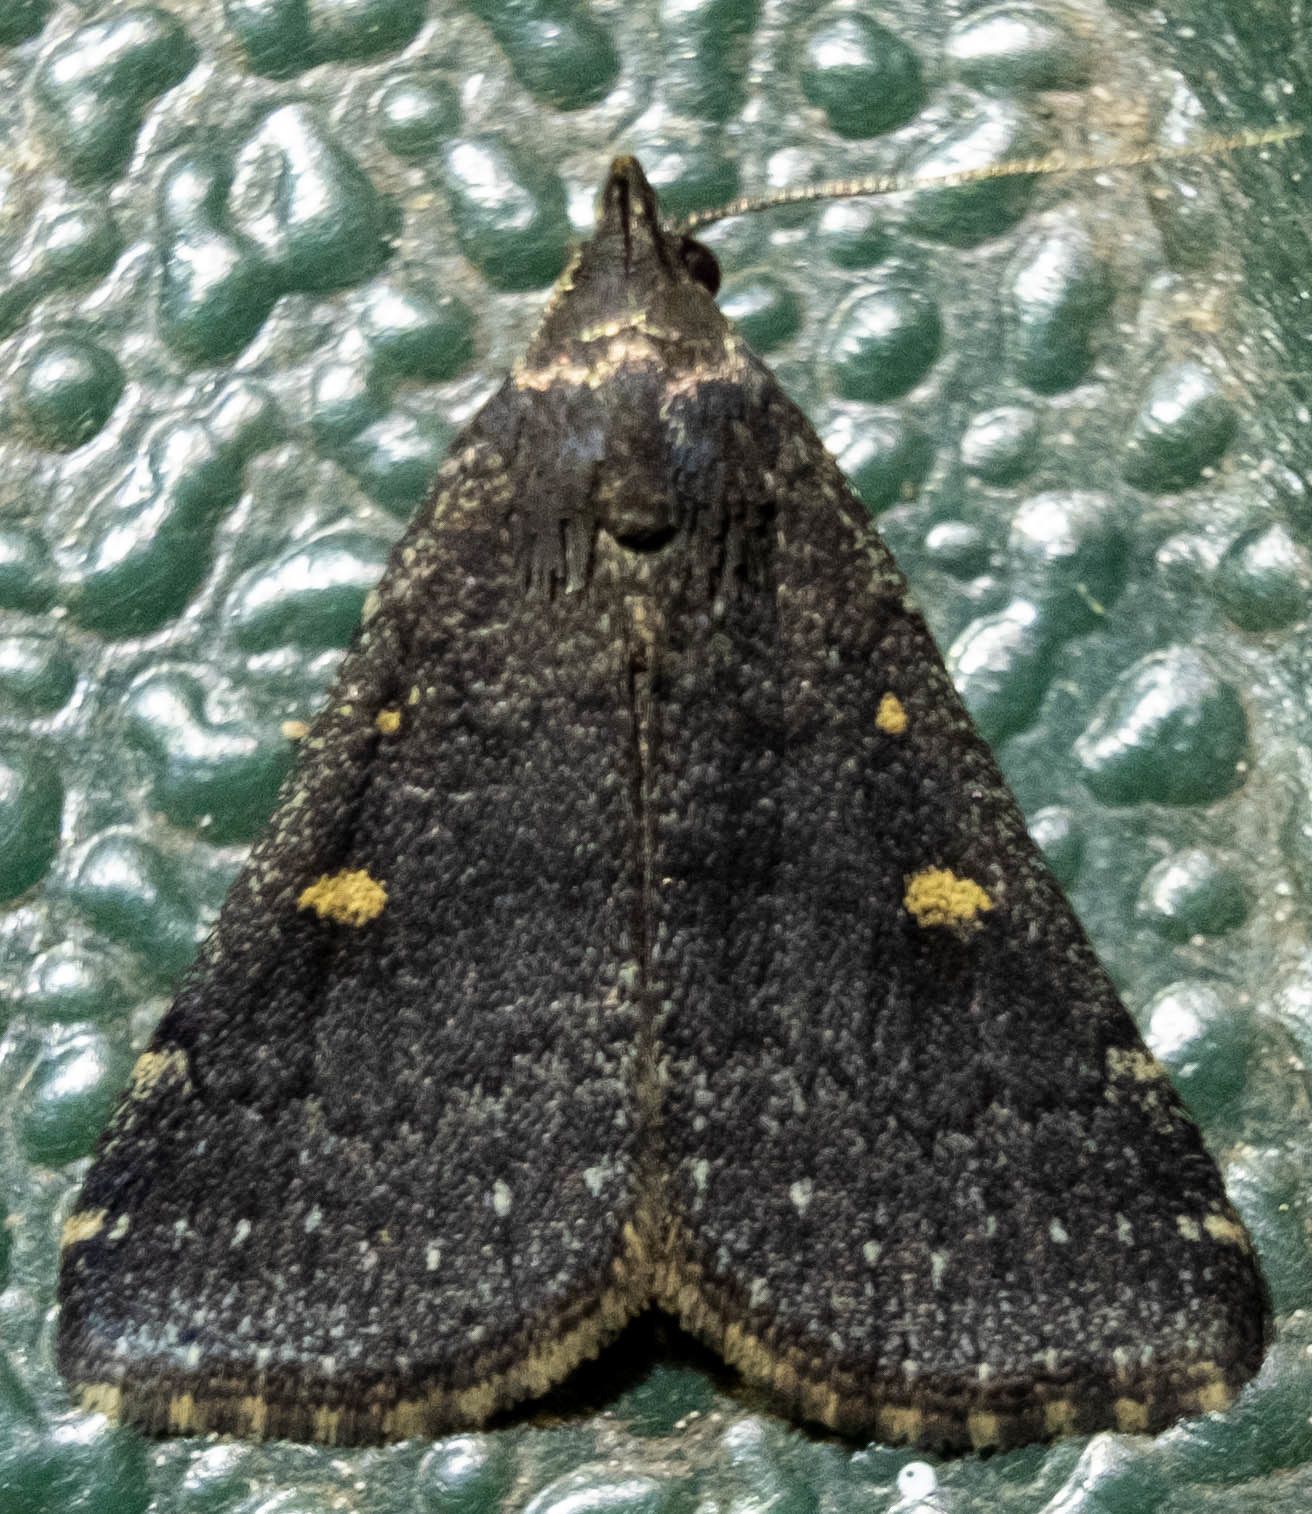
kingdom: Animalia
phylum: Arthropoda
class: Insecta
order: Lepidoptera
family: Erebidae
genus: Tetanolita
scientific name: Tetanolita mynesalis
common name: Smoky tetanolita moth
